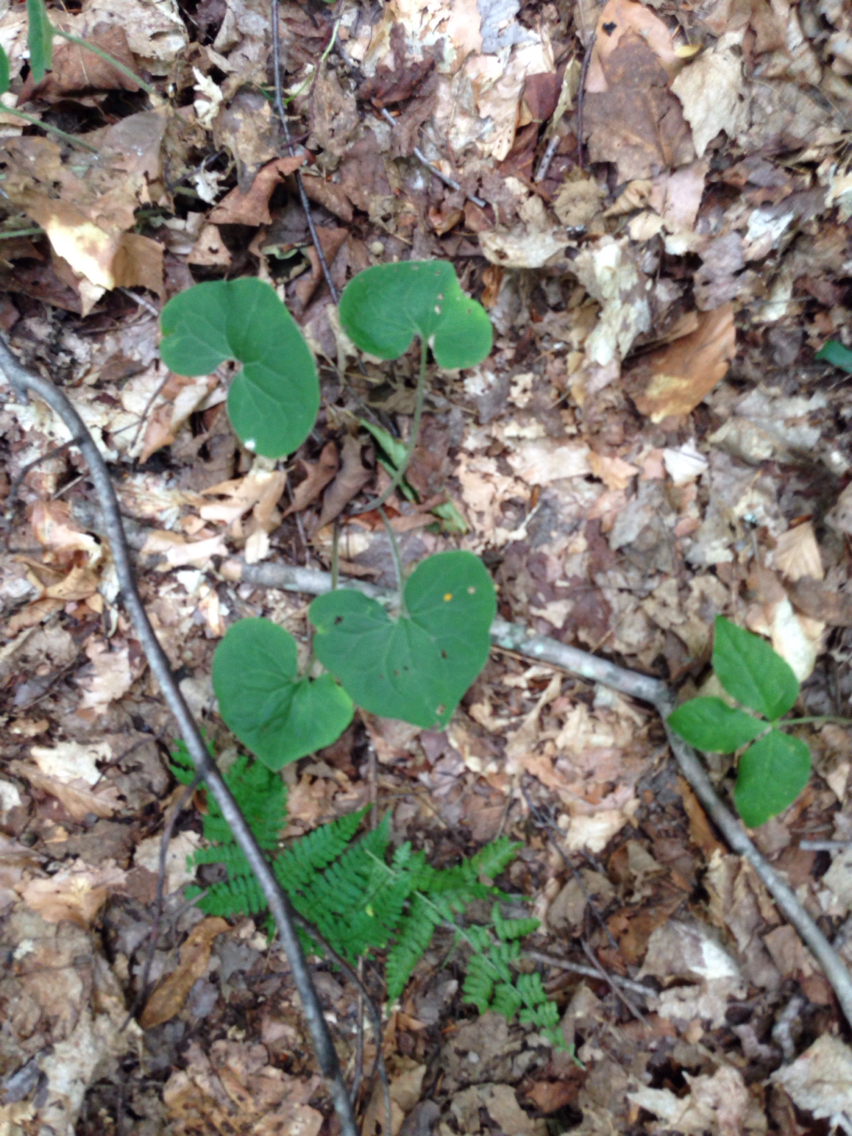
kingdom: Plantae
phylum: Tracheophyta
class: Magnoliopsida
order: Piperales
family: Aristolochiaceae
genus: Asarum
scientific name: Asarum canadense
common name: Wild ginger
